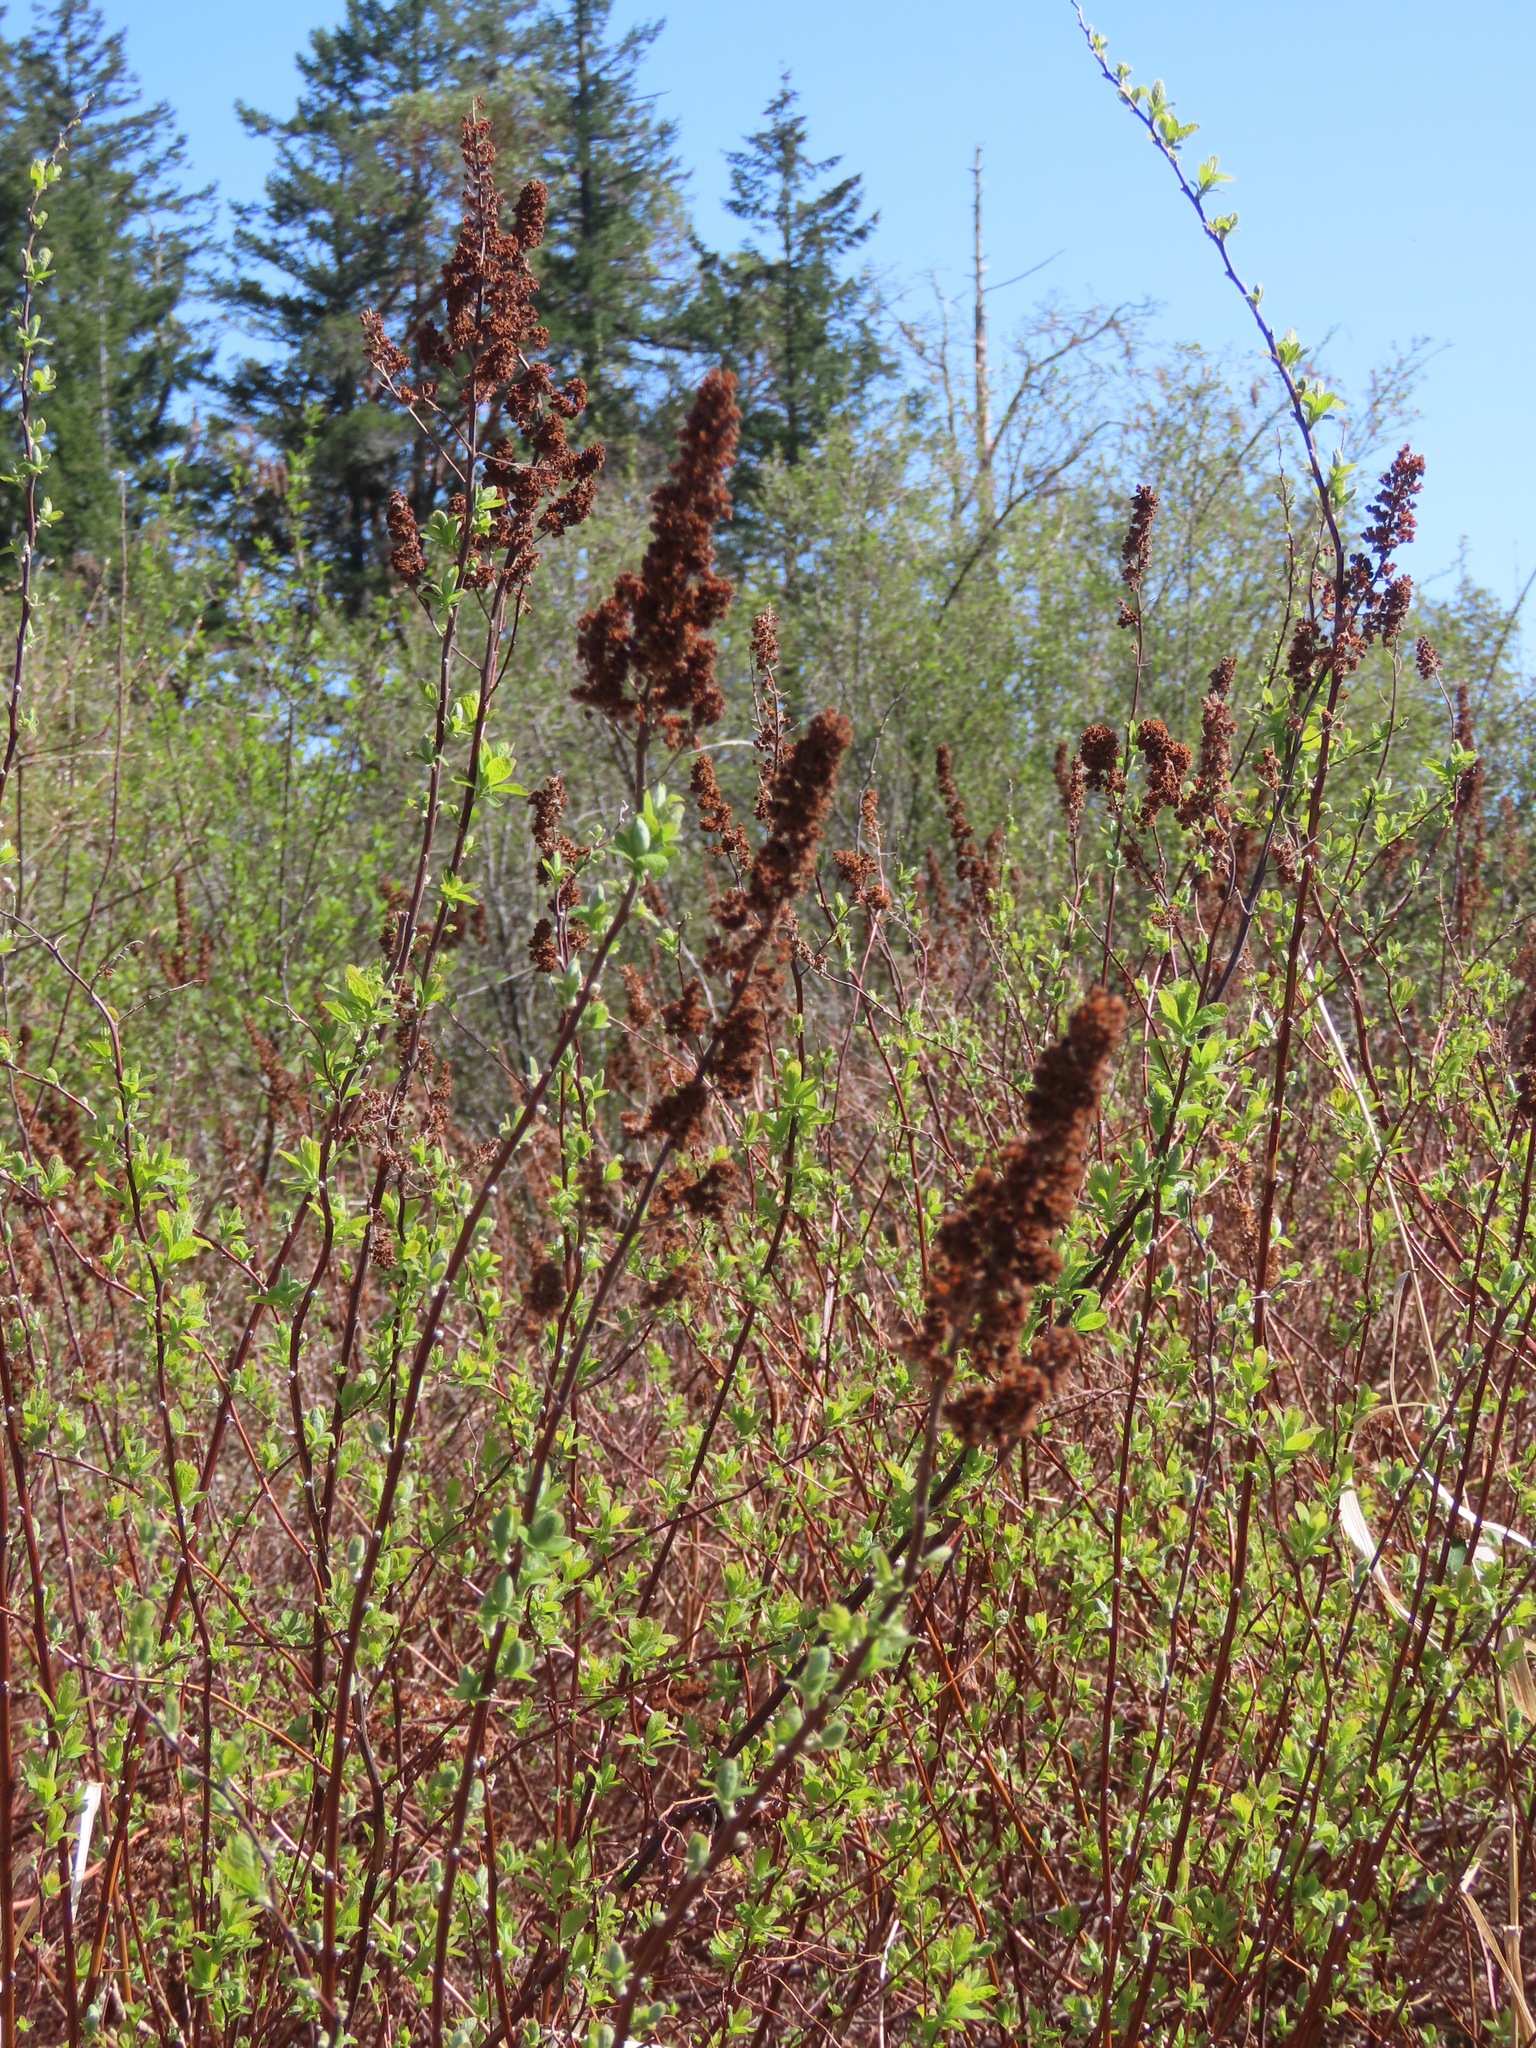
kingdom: Plantae
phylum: Tracheophyta
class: Magnoliopsida
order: Rosales
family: Rosaceae
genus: Spiraea
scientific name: Spiraea douglasii
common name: Steeplebush
